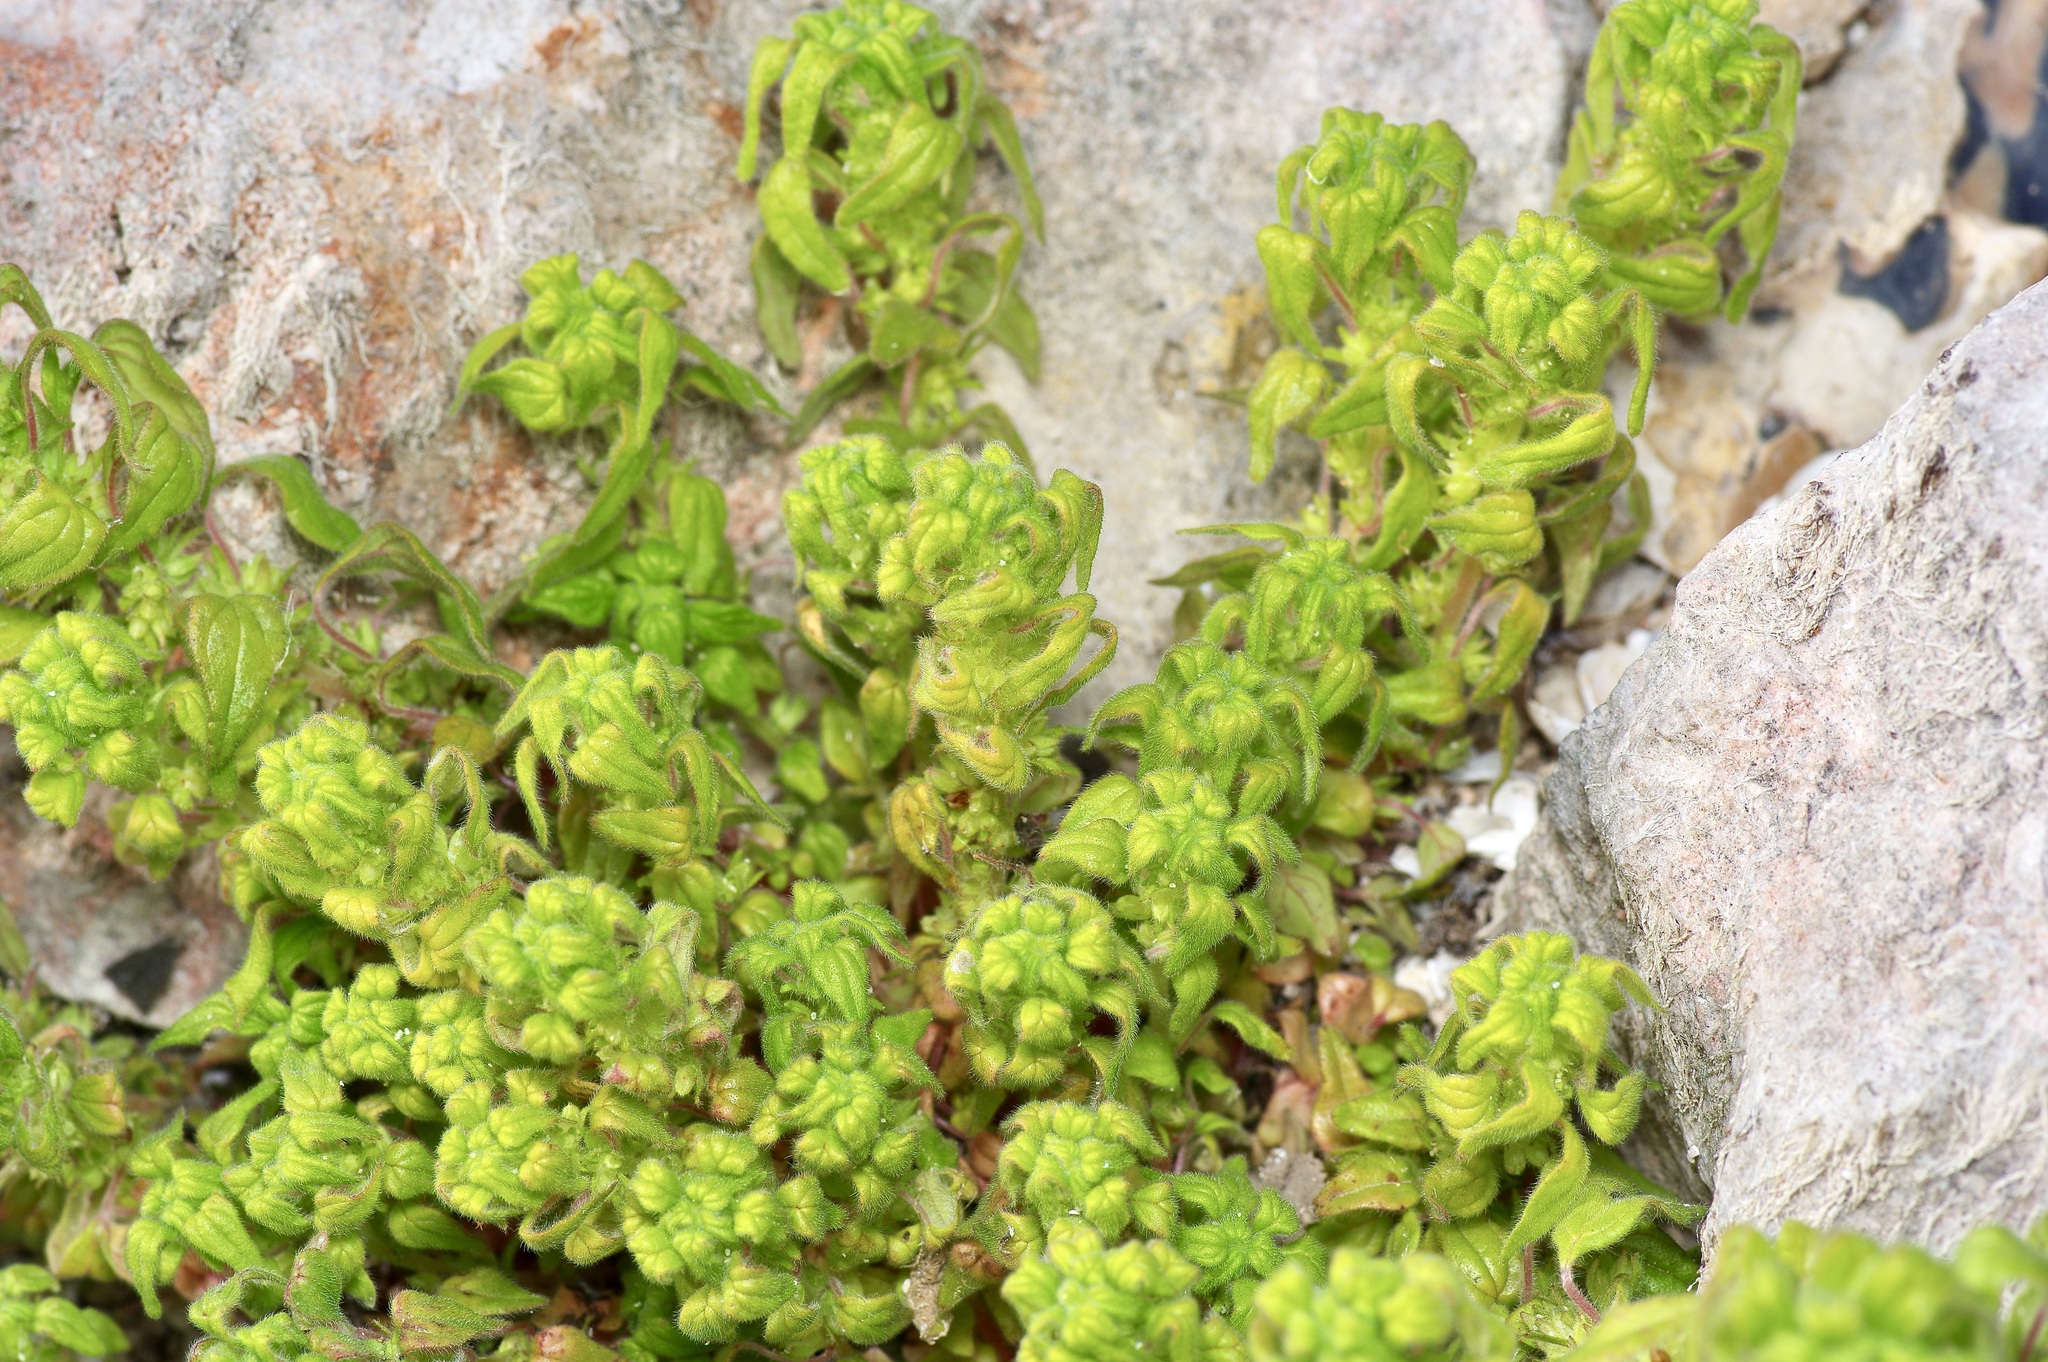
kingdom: Plantae
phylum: Tracheophyta
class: Magnoliopsida
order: Rosales
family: Urticaceae
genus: Parietaria
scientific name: Parietaria pensylvanica
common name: Pennsylvania pellitory
